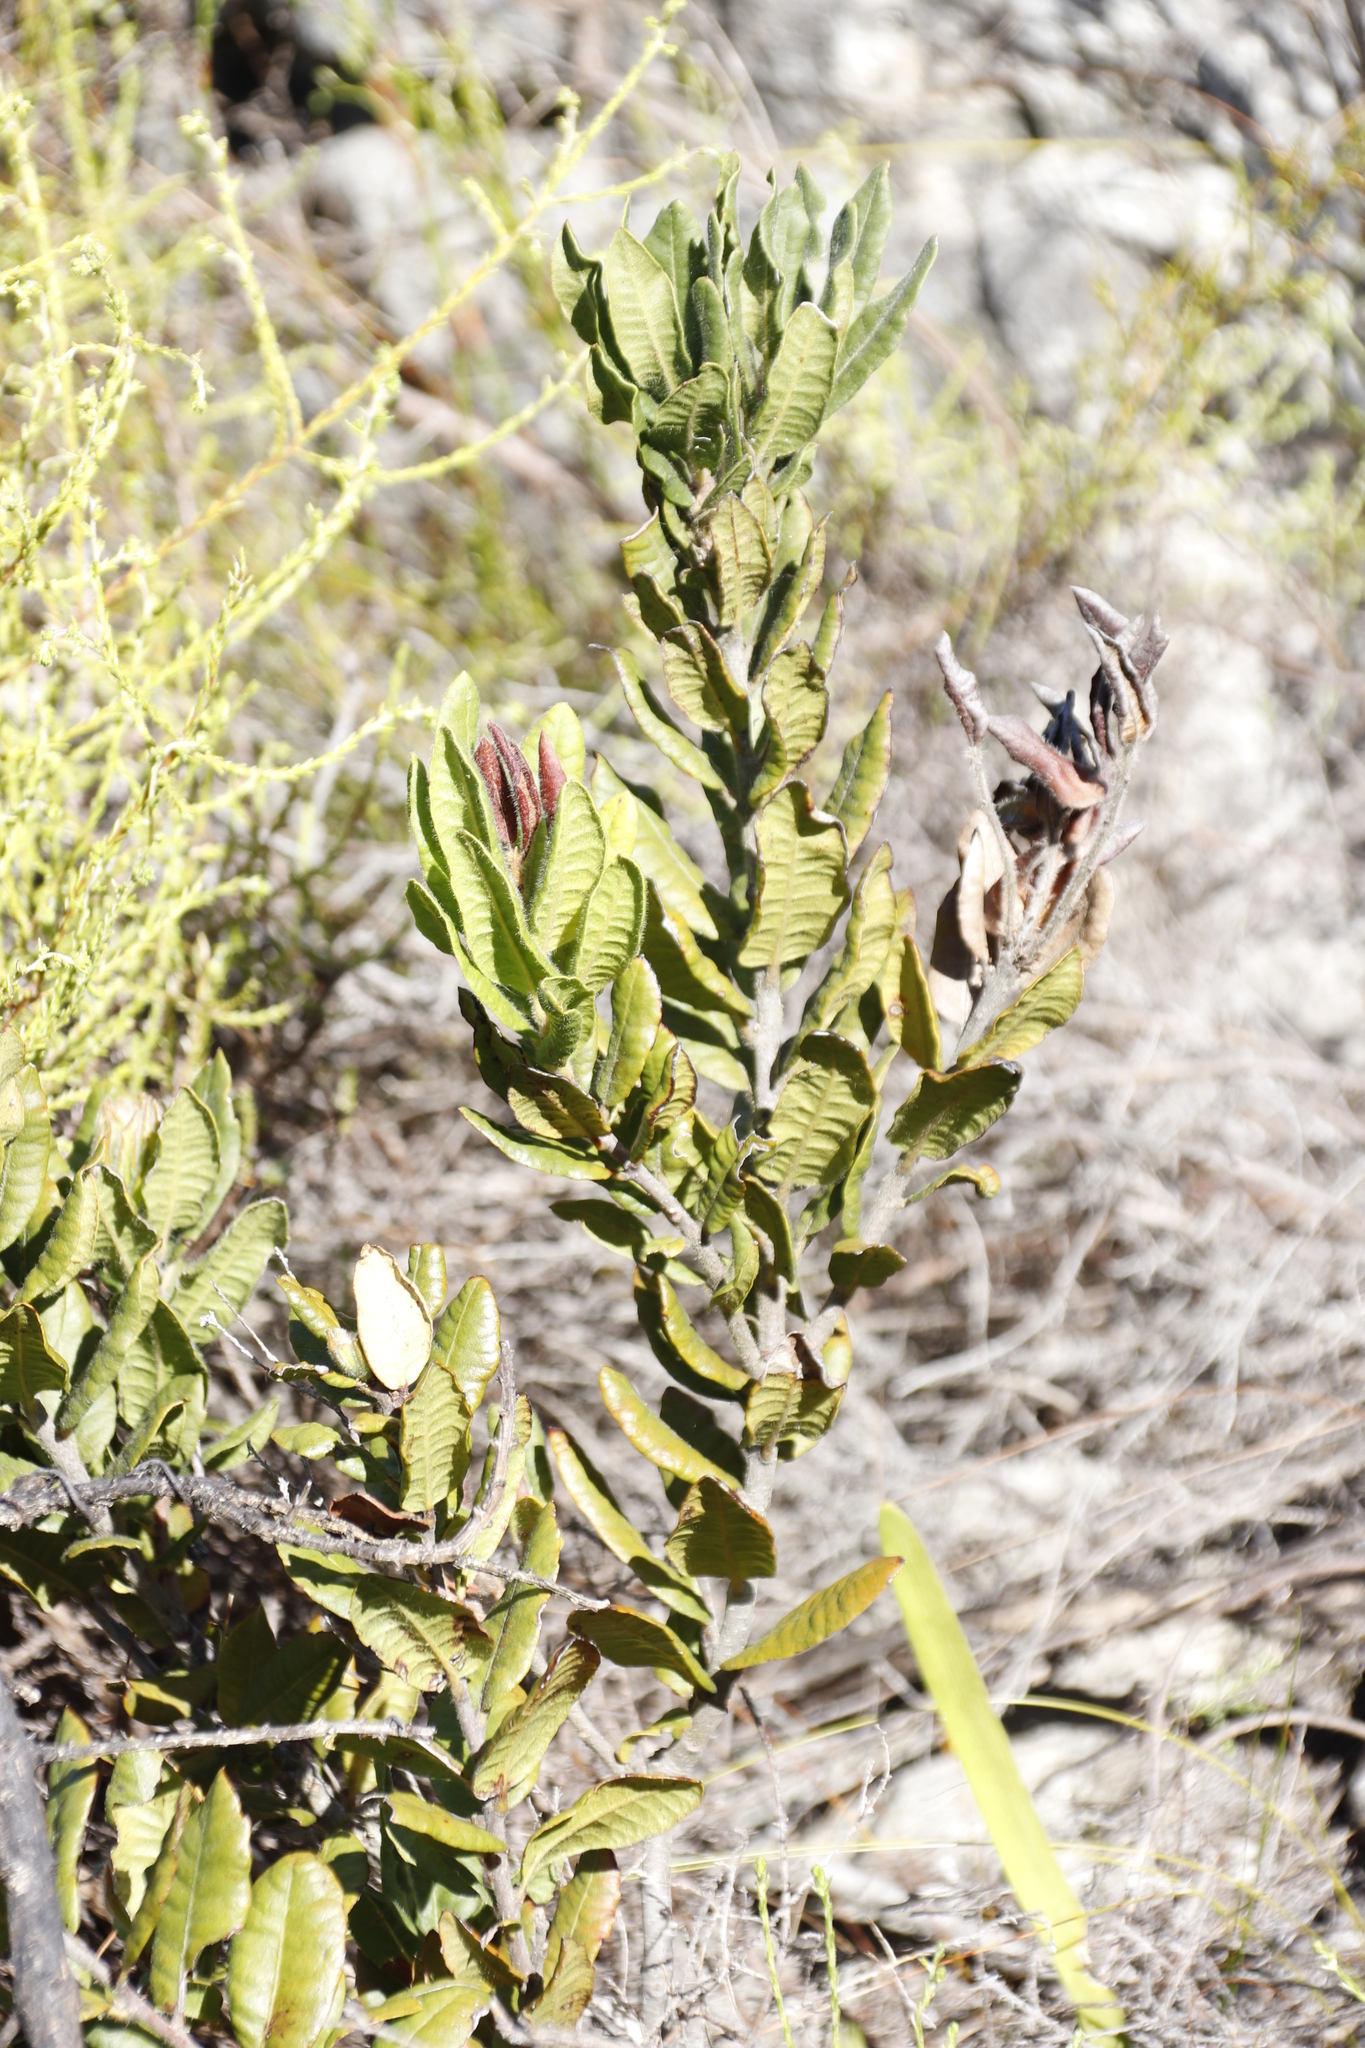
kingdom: Plantae
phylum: Tracheophyta
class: Magnoliopsida
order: Gentianales
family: Apocynaceae
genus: Gomphocarpus
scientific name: Gomphocarpus cancellatus
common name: Wild cotton
